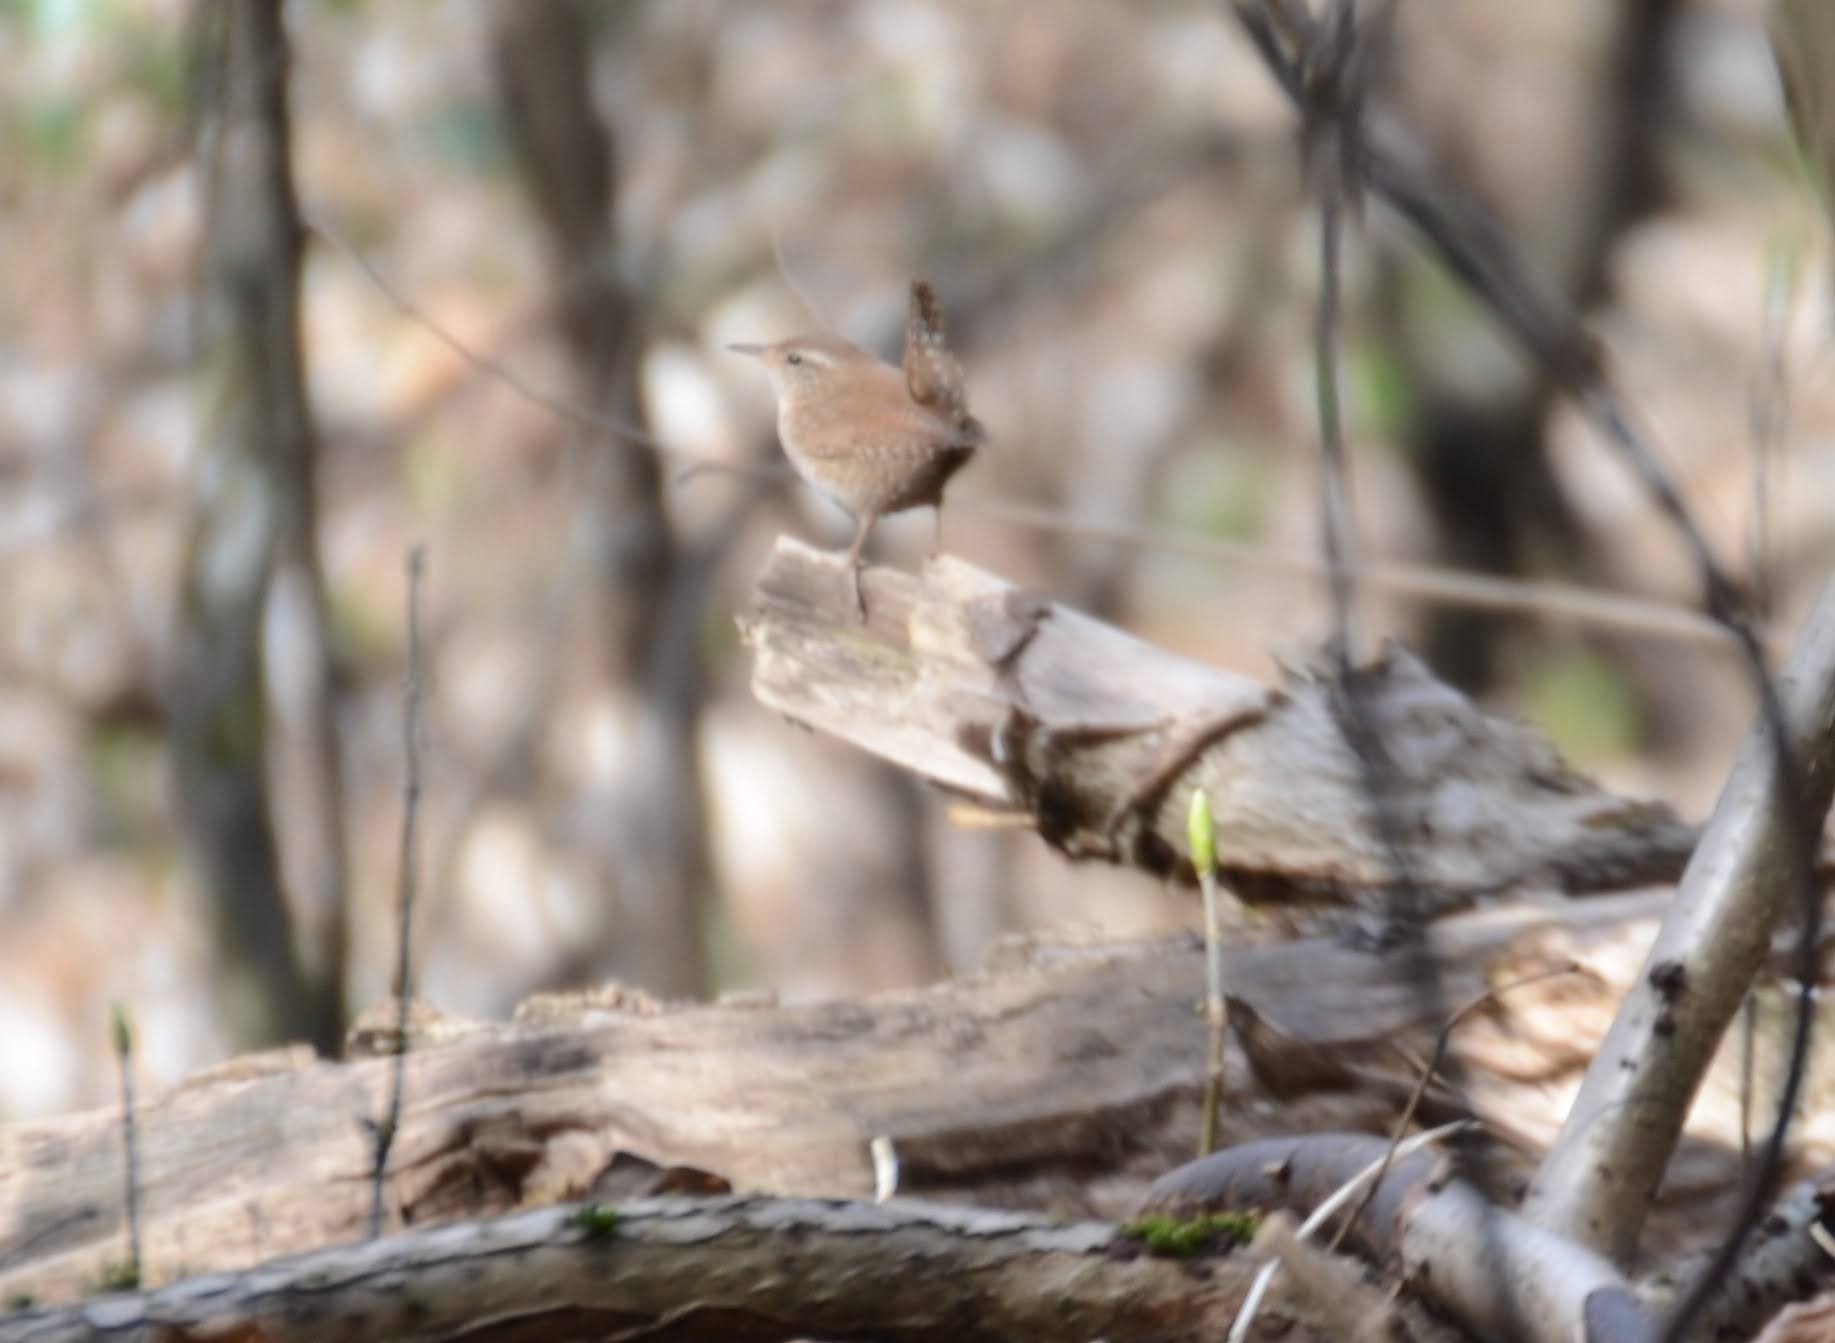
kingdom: Animalia
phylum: Chordata
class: Aves
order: Passeriformes
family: Troglodytidae
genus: Troglodytes
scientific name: Troglodytes troglodytes
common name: Eurasian wren
